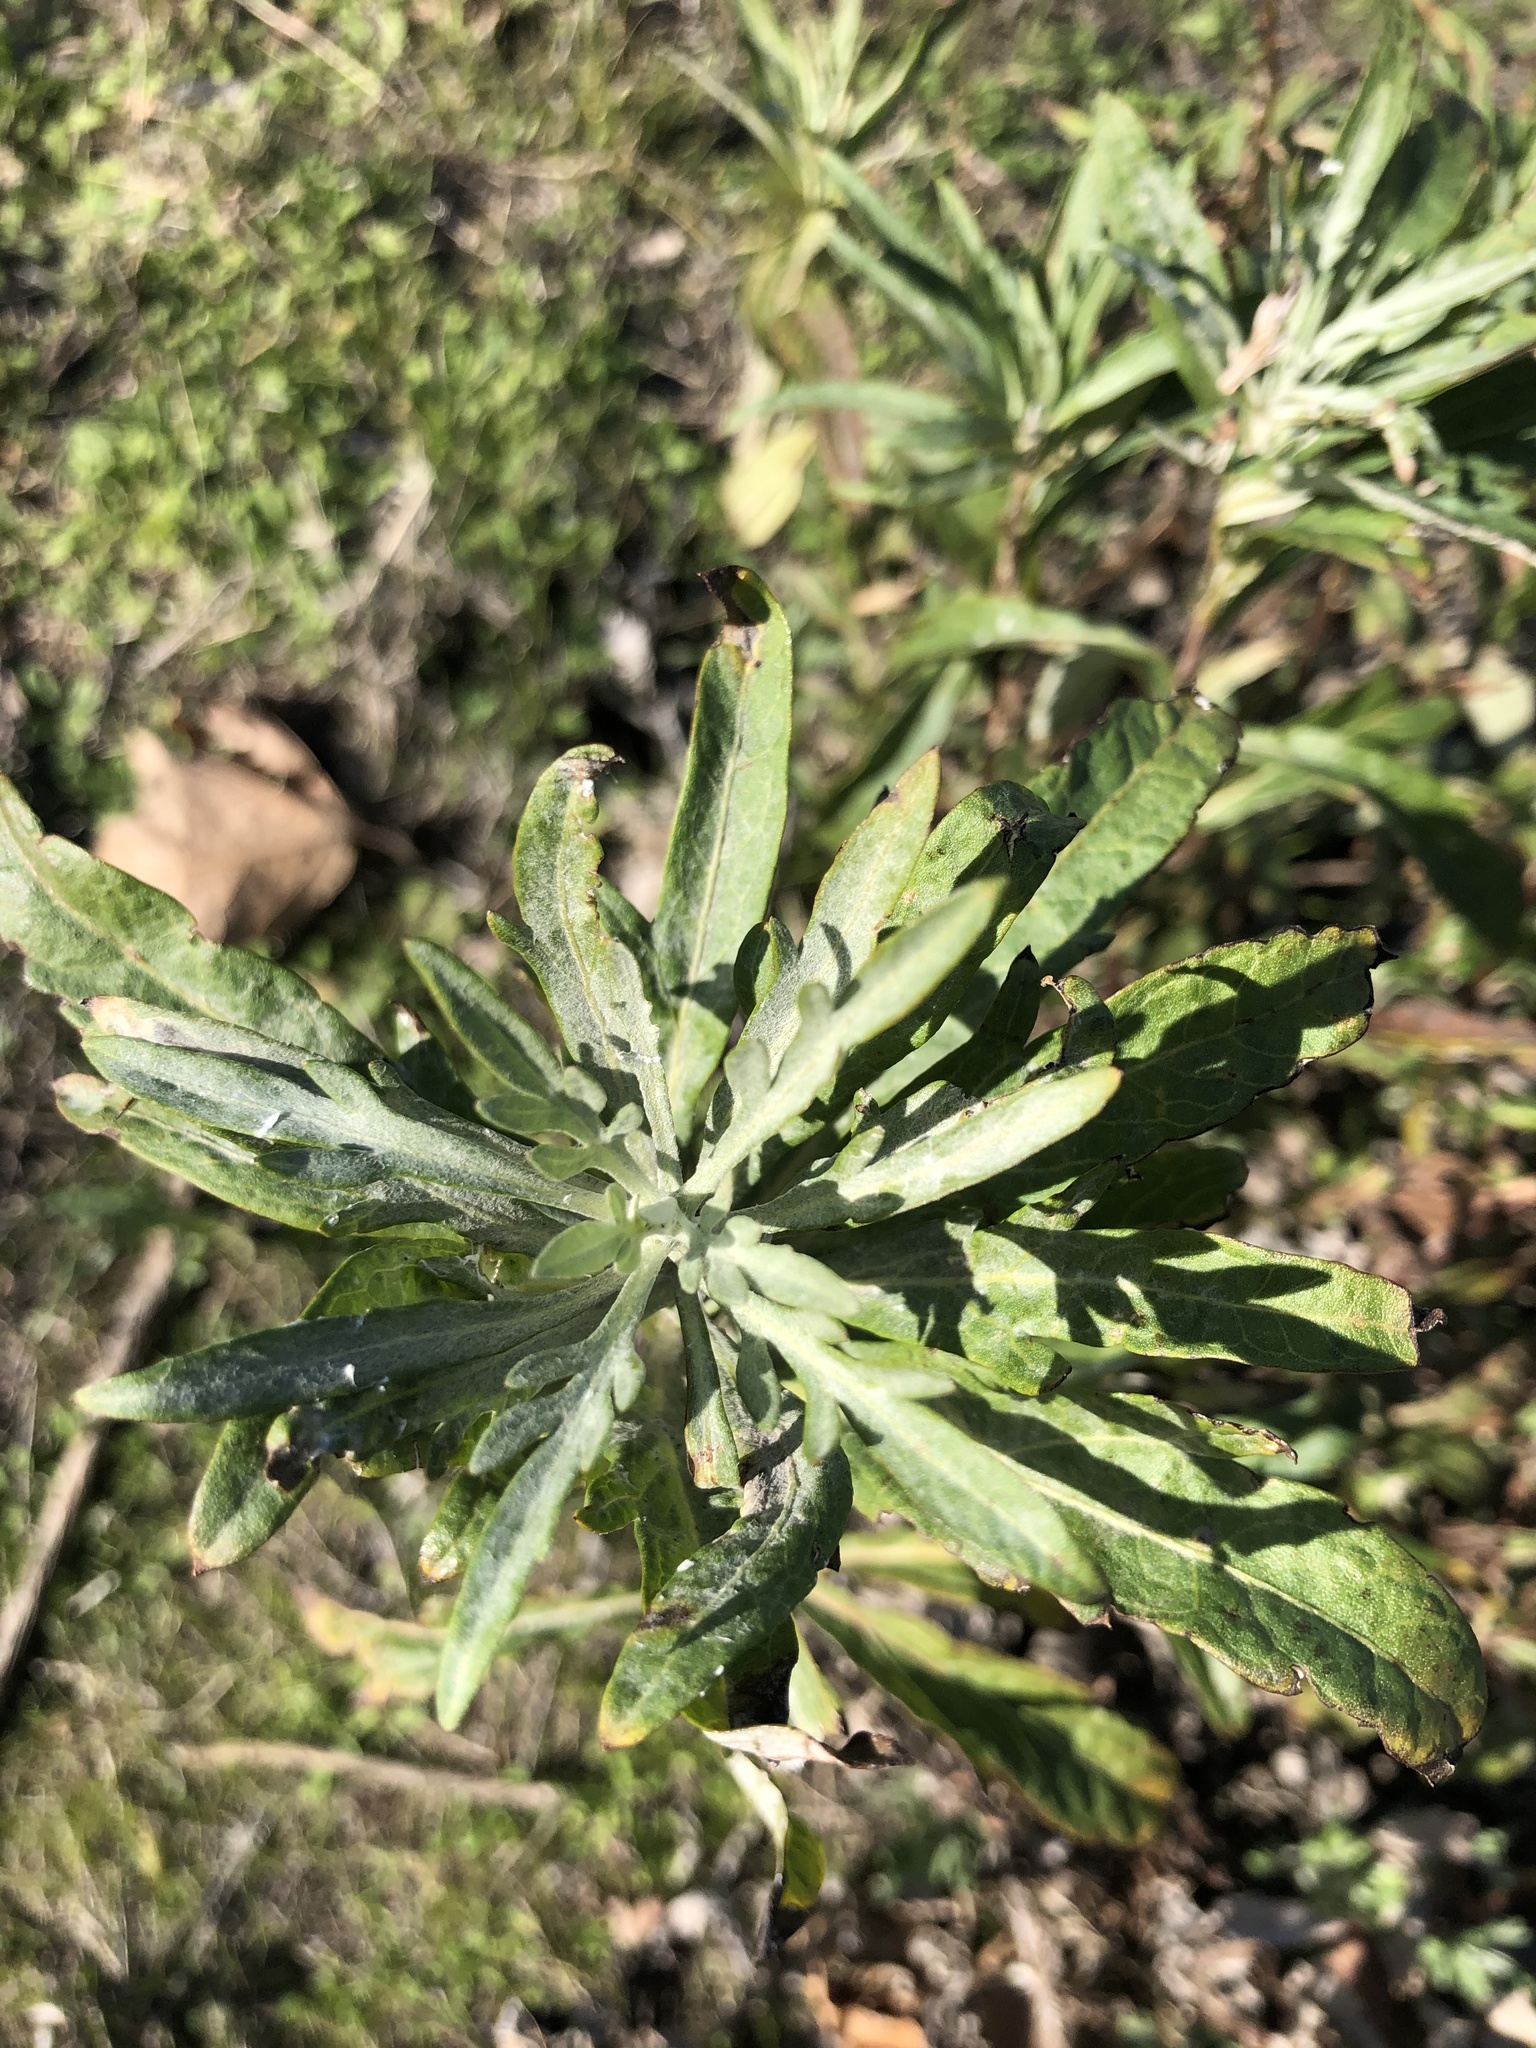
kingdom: Plantae
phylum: Tracheophyta
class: Magnoliopsida
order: Asterales
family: Asteraceae
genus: Artemisia
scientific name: Artemisia douglasiana
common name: Northwest mugwort
